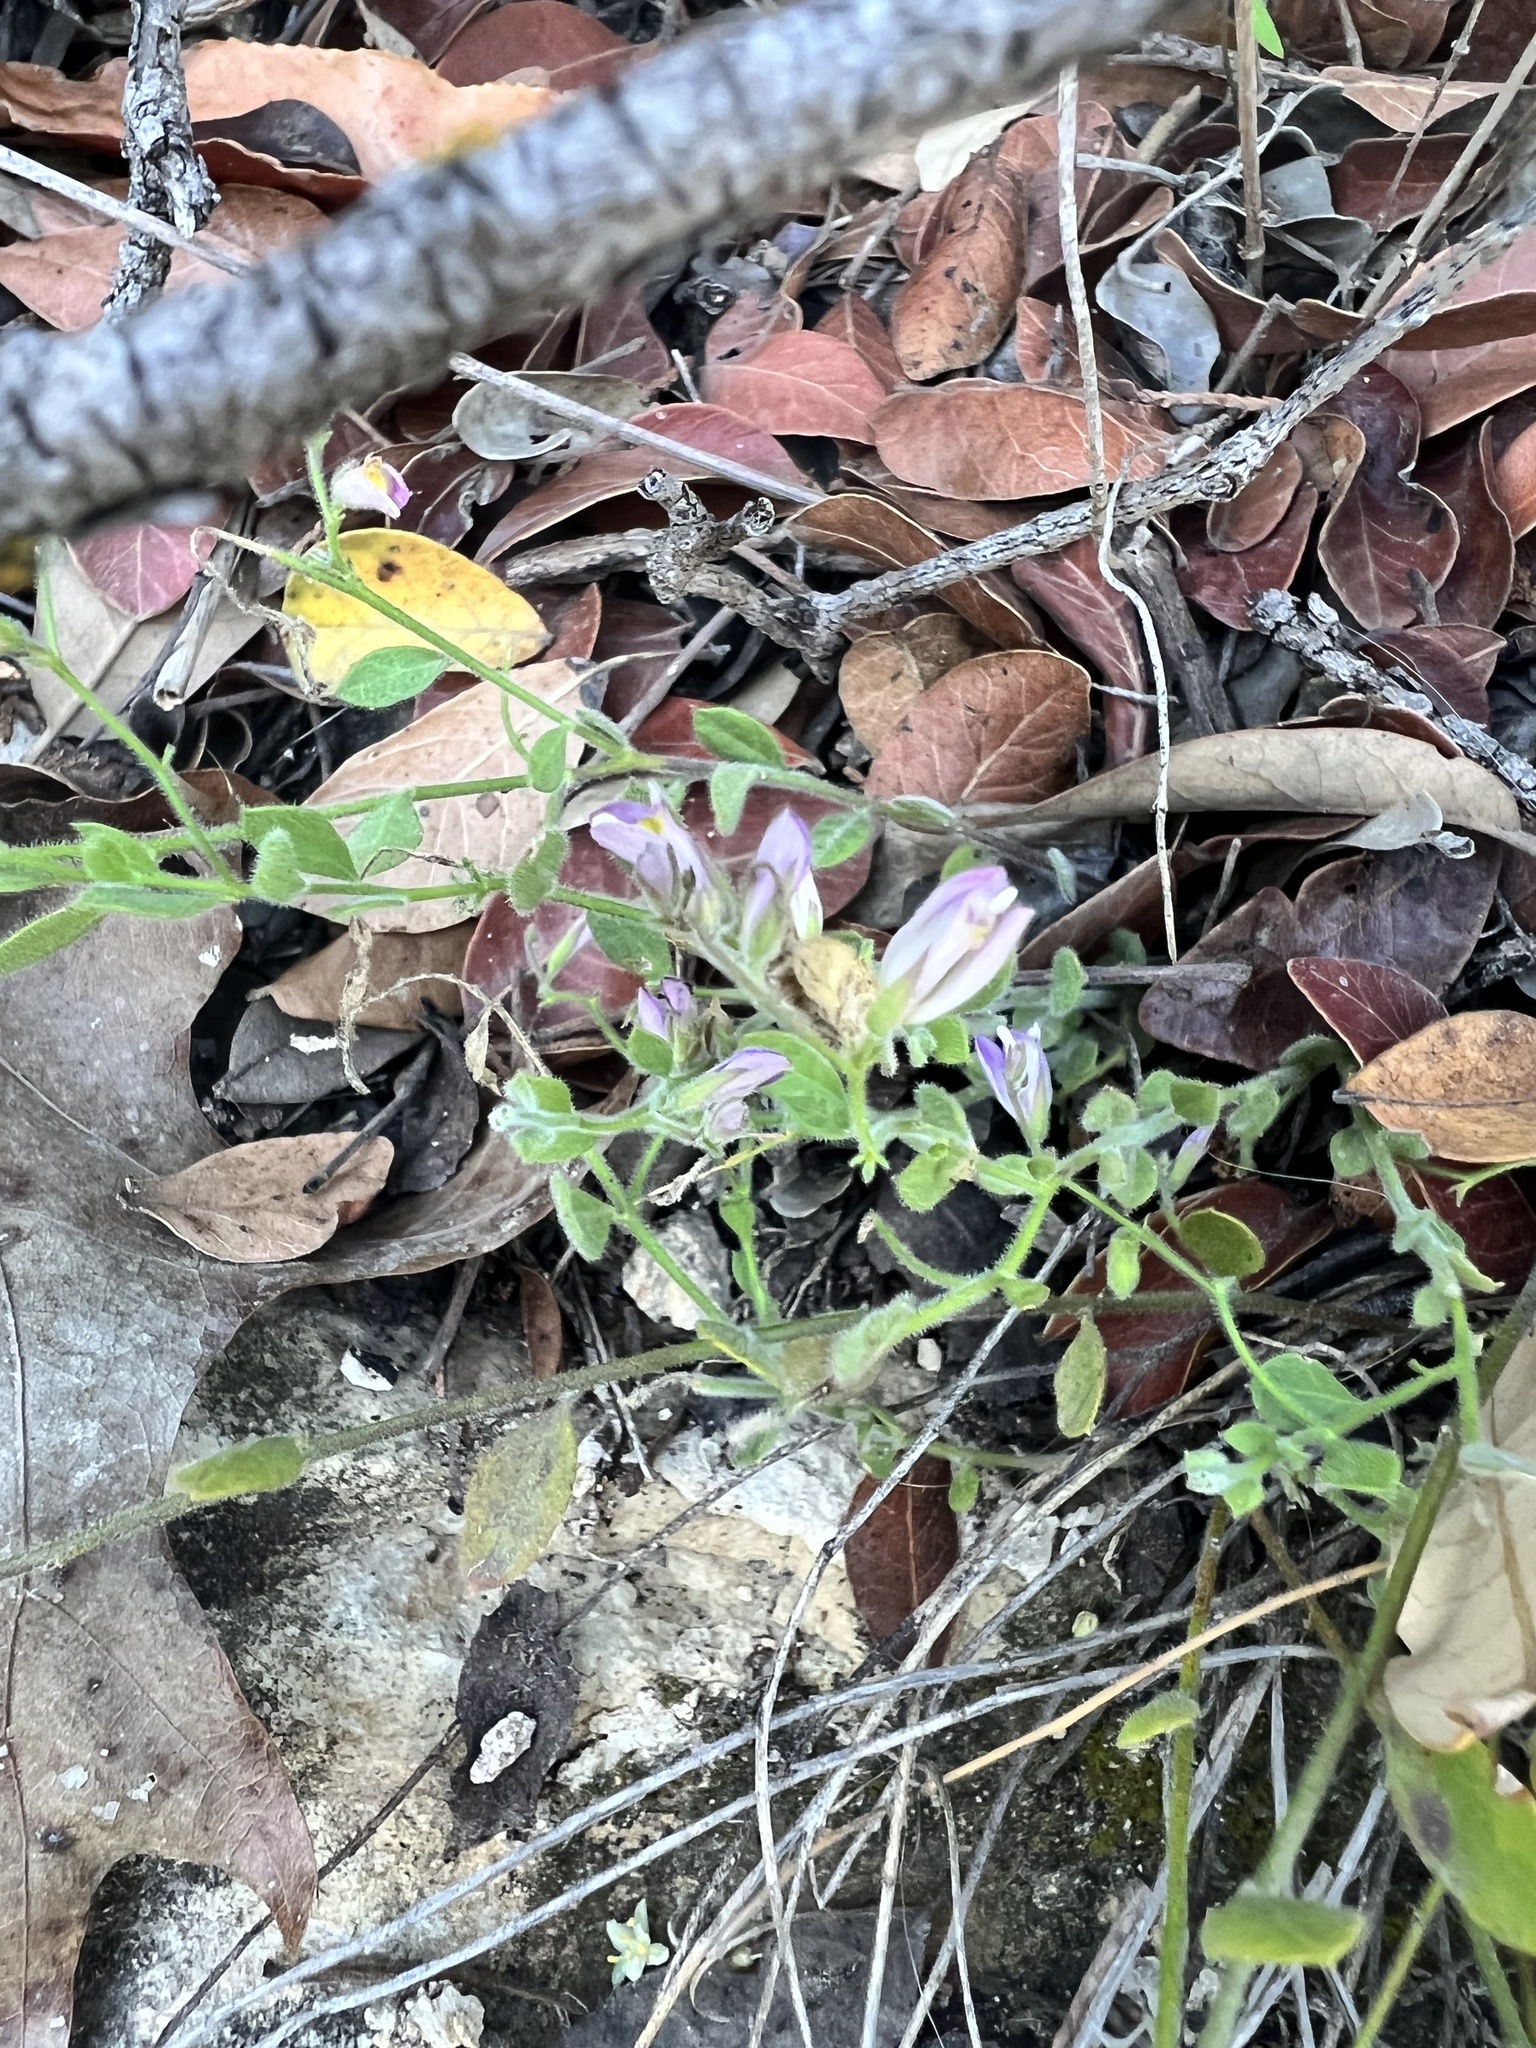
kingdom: Plantae
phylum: Tracheophyta
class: Magnoliopsida
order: Fabales
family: Polygalaceae
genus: Rhinotropis
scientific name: Rhinotropis lindheimeri
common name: Shrubby milkwort
